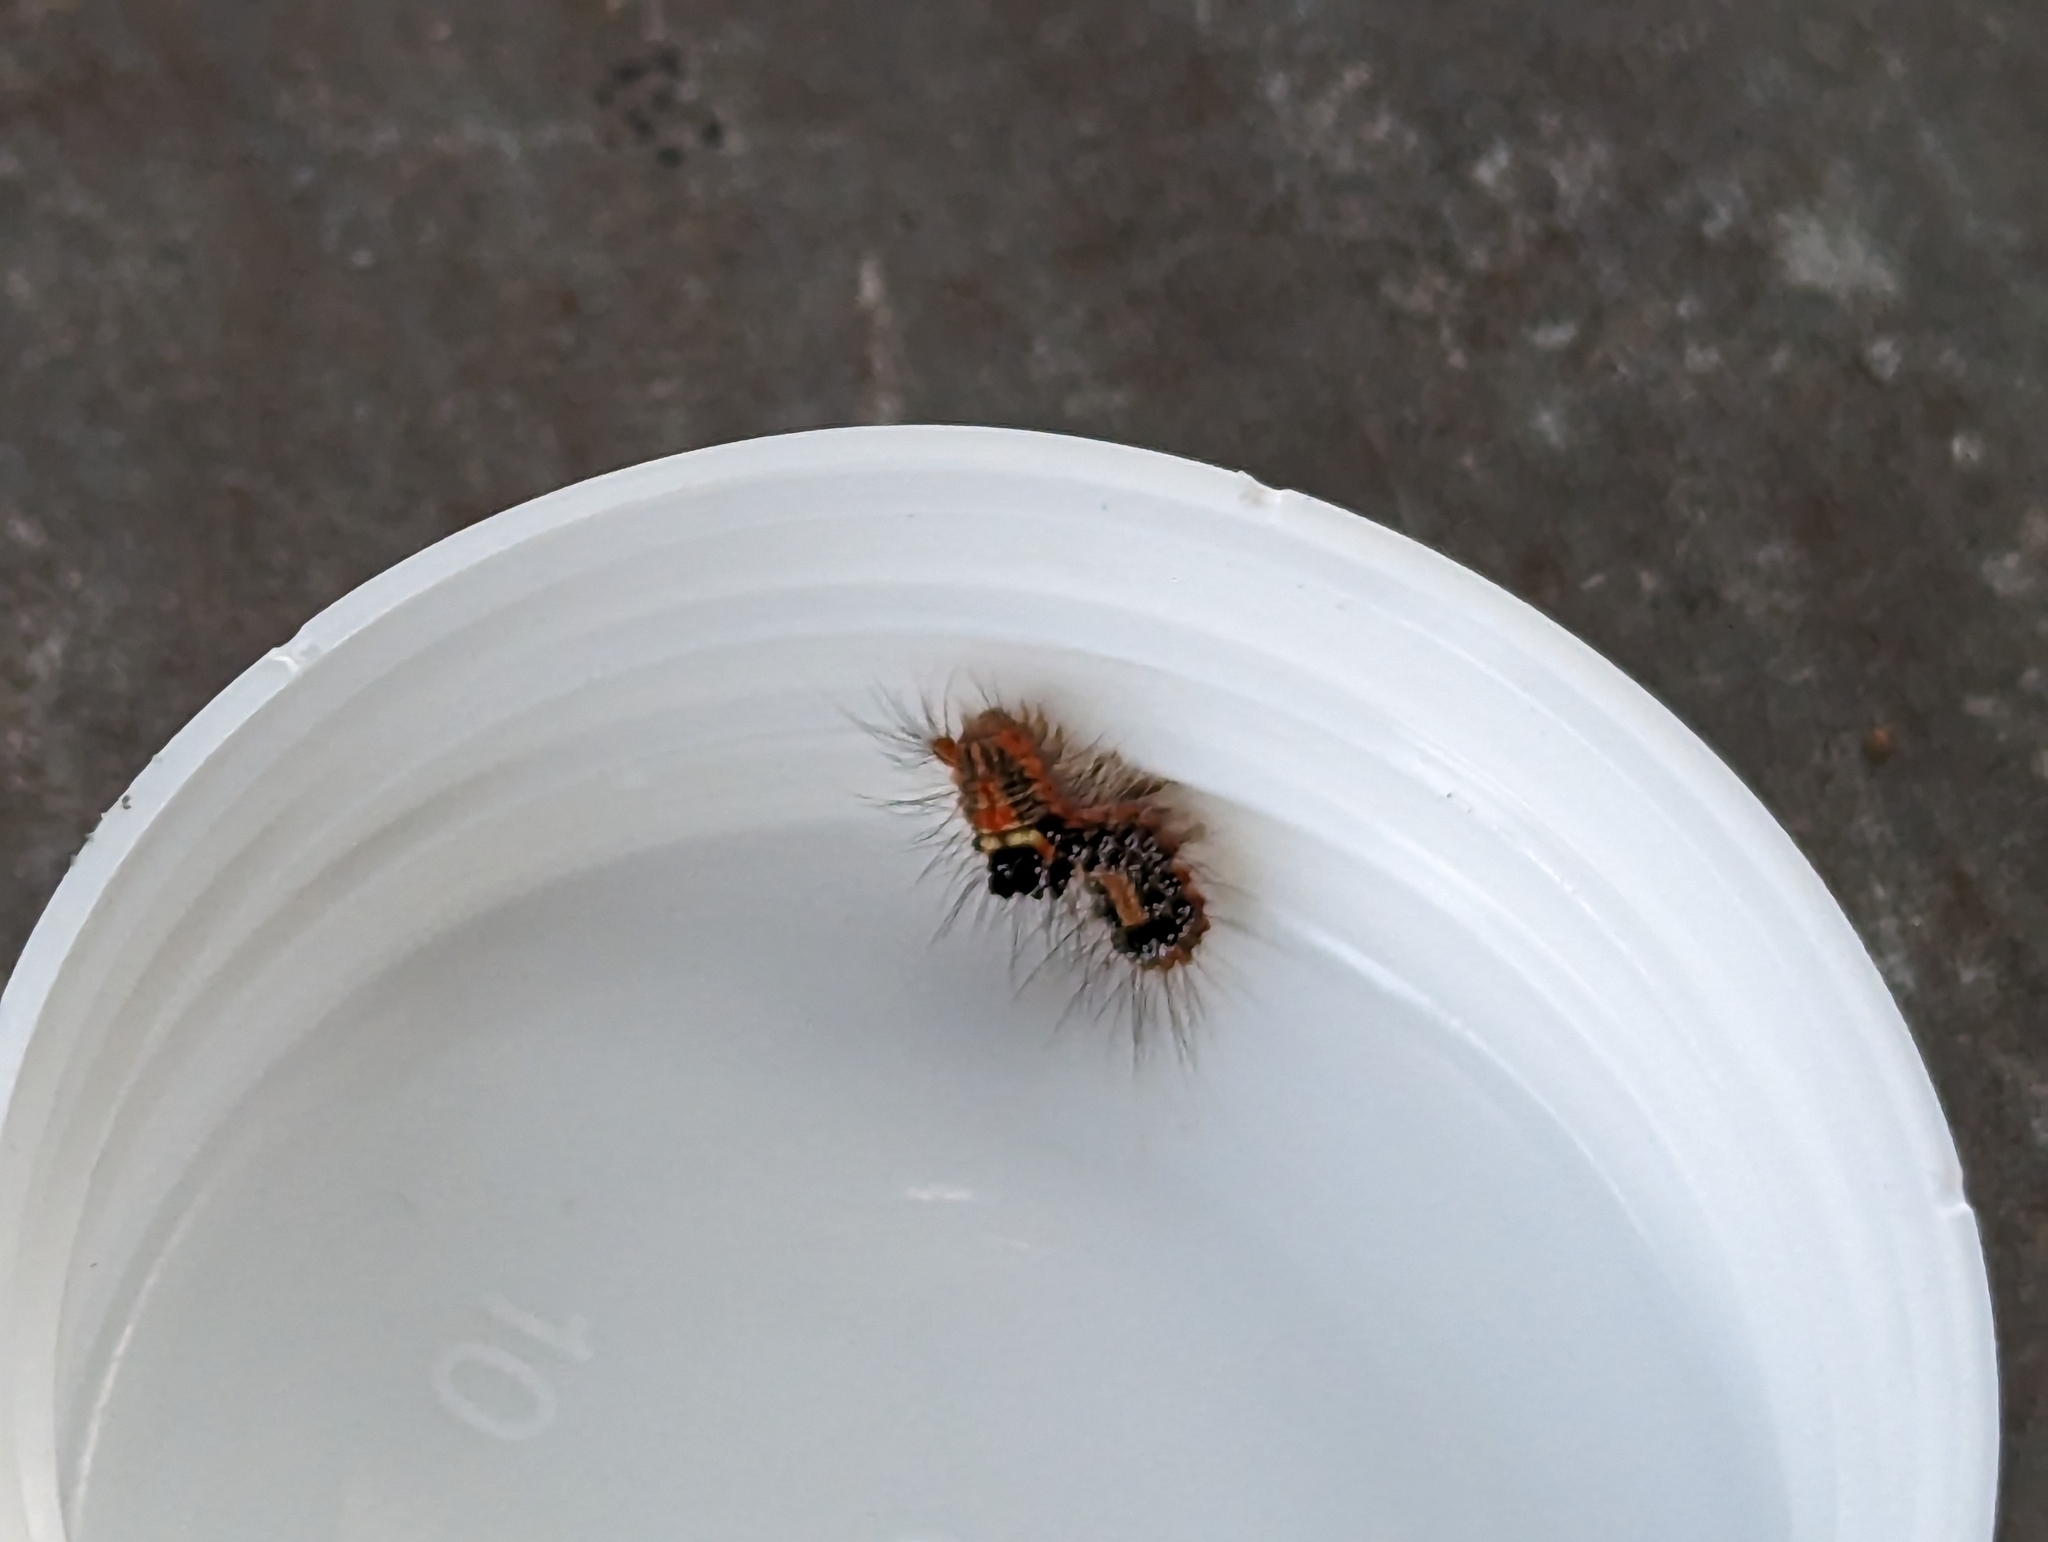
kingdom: Animalia
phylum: Arthropoda
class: Insecta
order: Lepidoptera
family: Erebidae
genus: Euproctis
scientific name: Euproctis taiwana
